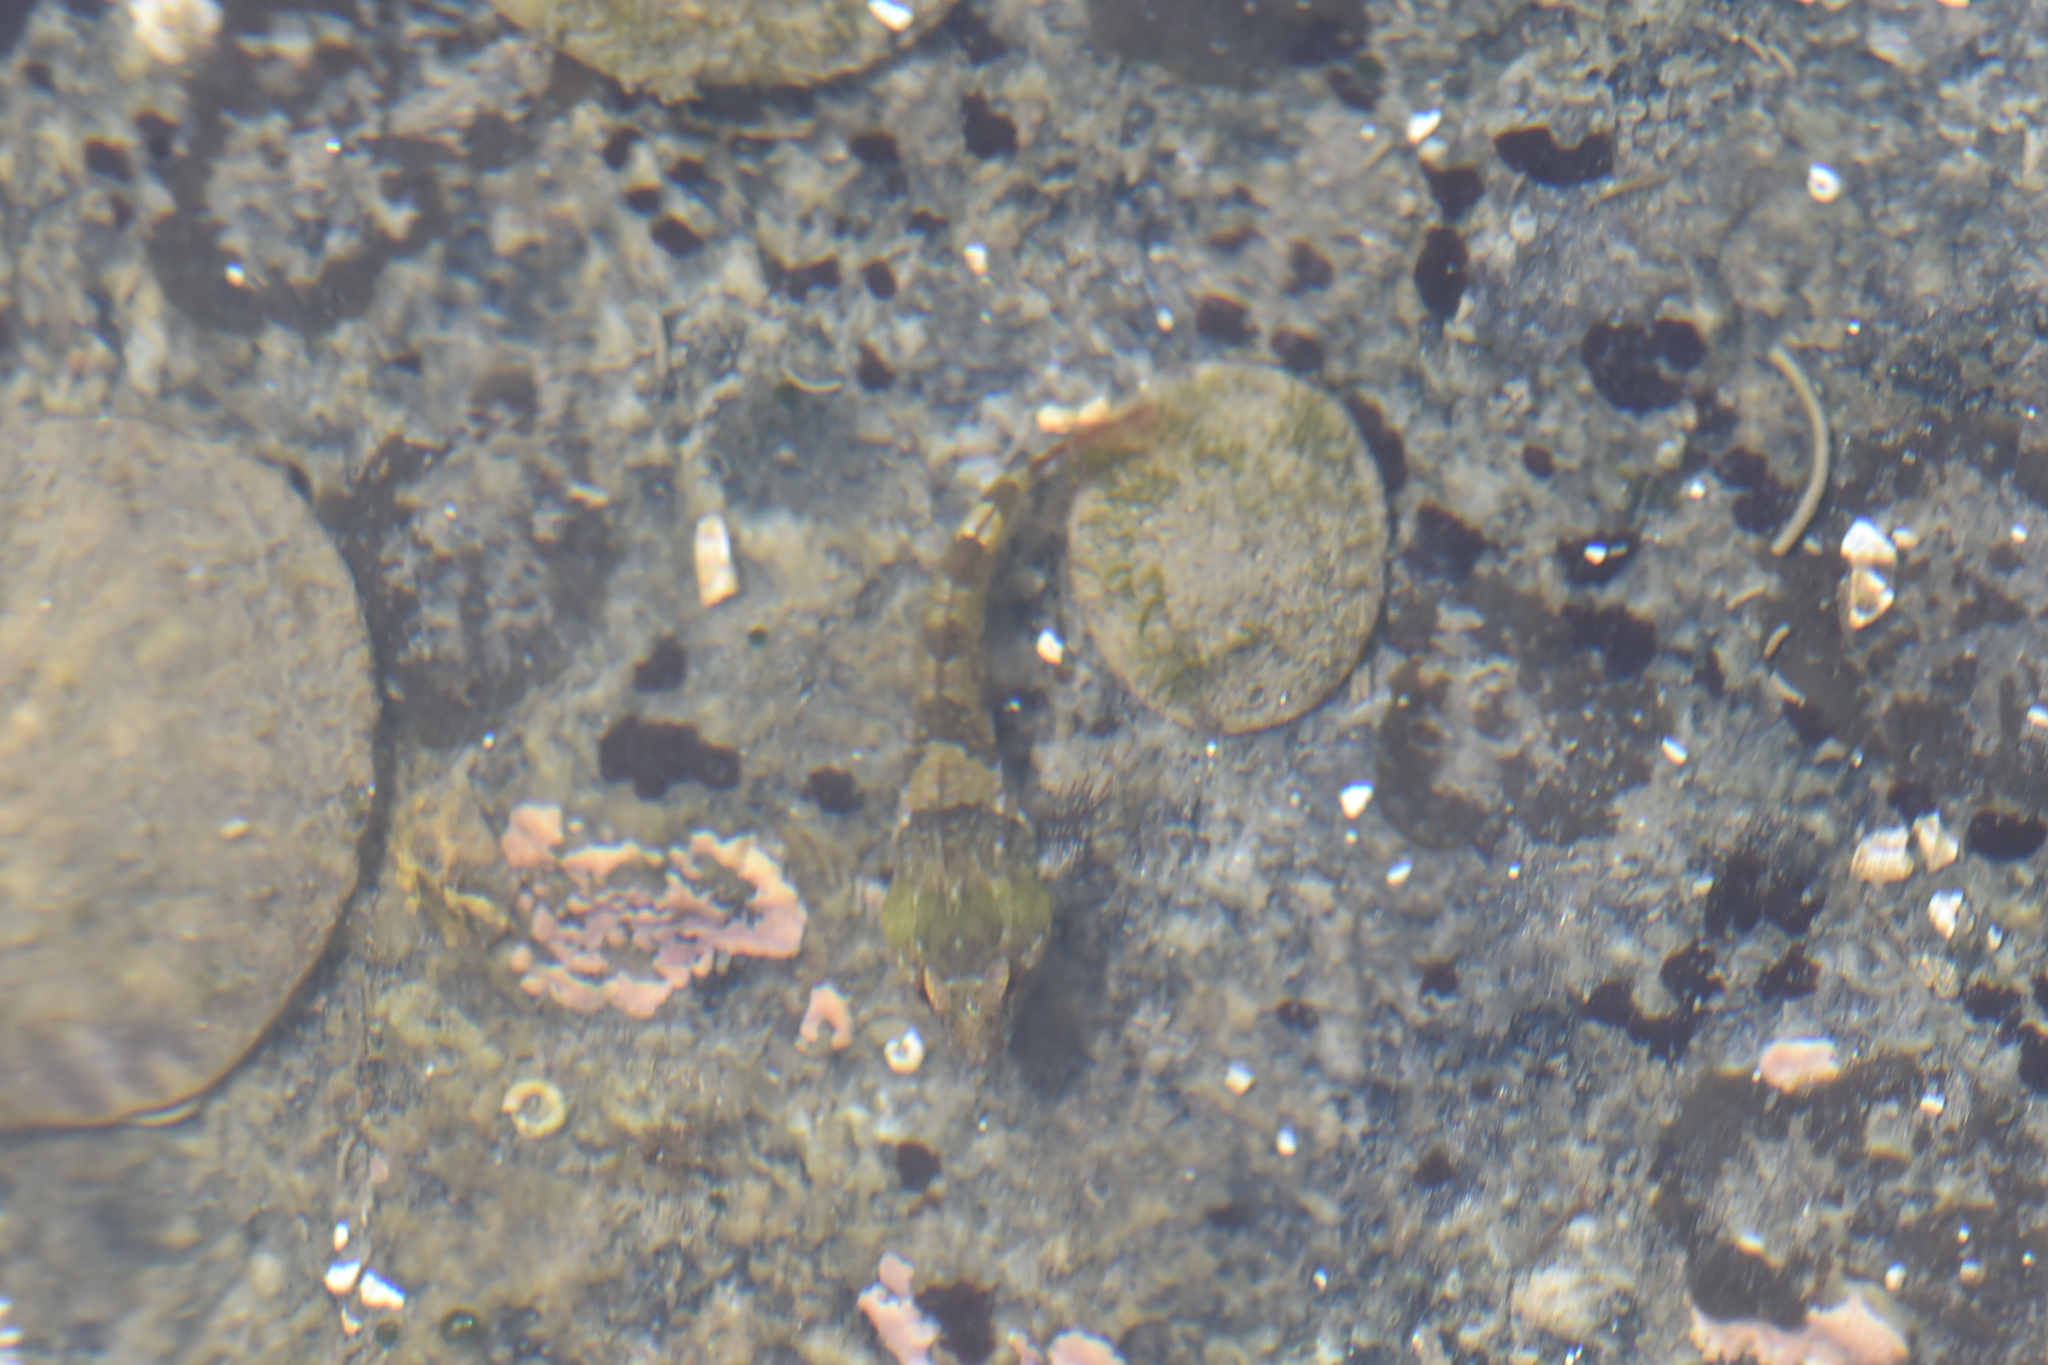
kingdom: Animalia
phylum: Chordata
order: Scorpaeniformes
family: Cottidae
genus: Oligocottus
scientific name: Oligocottus maculosus
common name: Tidepool sculpin
